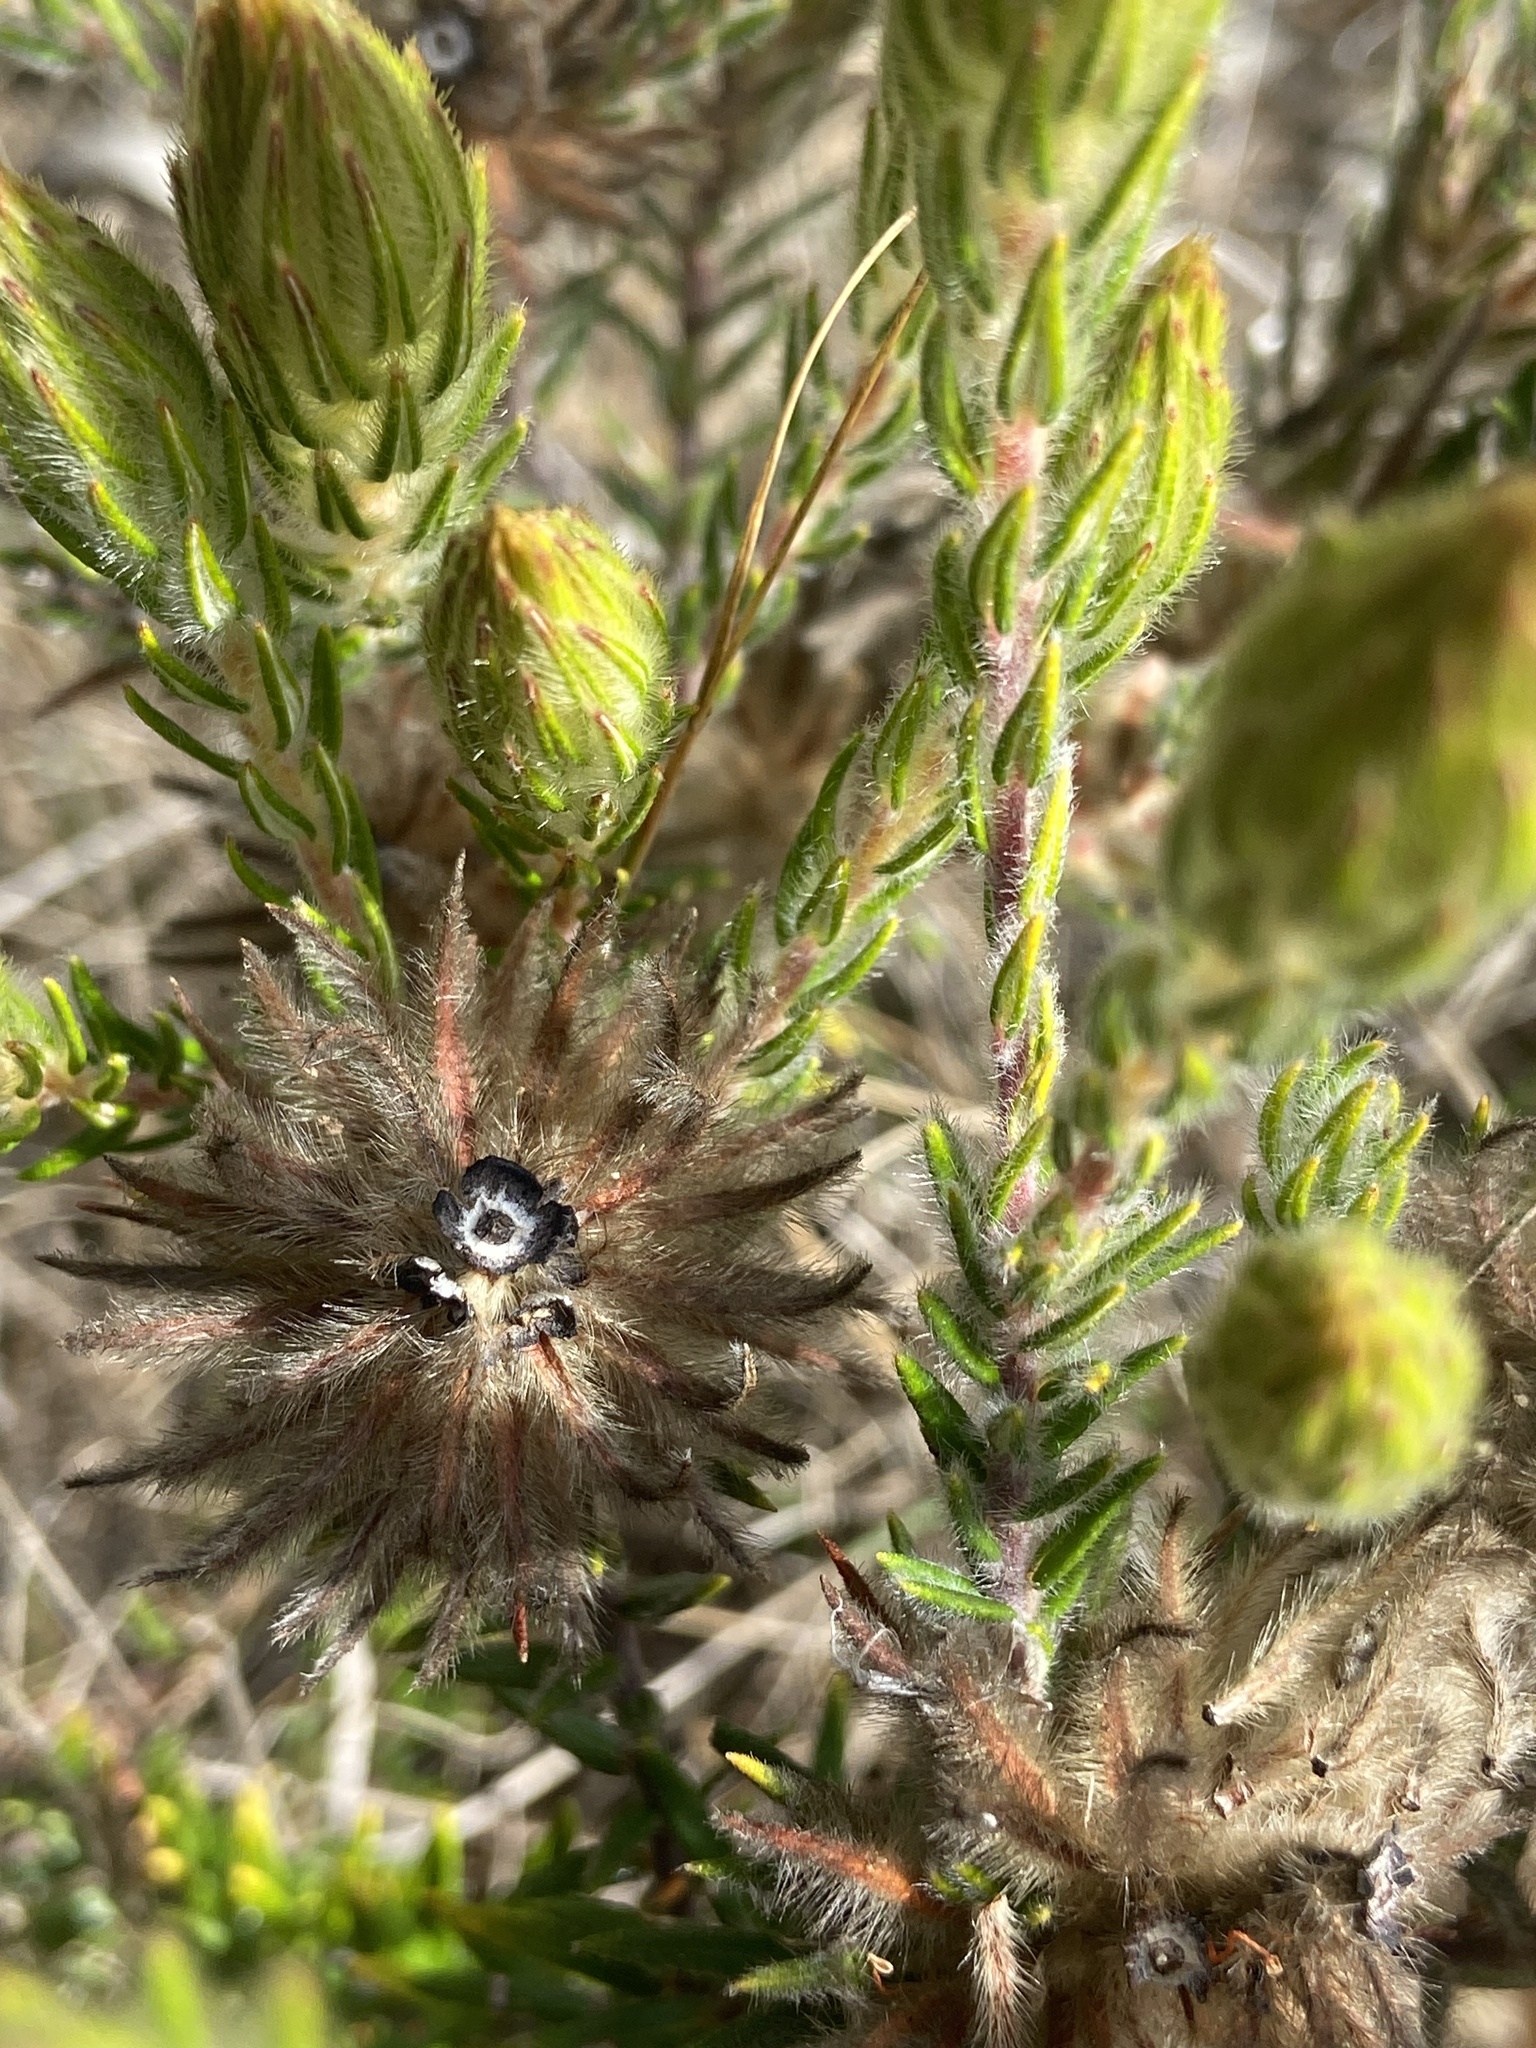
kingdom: Plantae
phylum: Tracheophyta
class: Magnoliopsida
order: Rosales
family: Rhamnaceae
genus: Phylica
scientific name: Phylica plumosa
